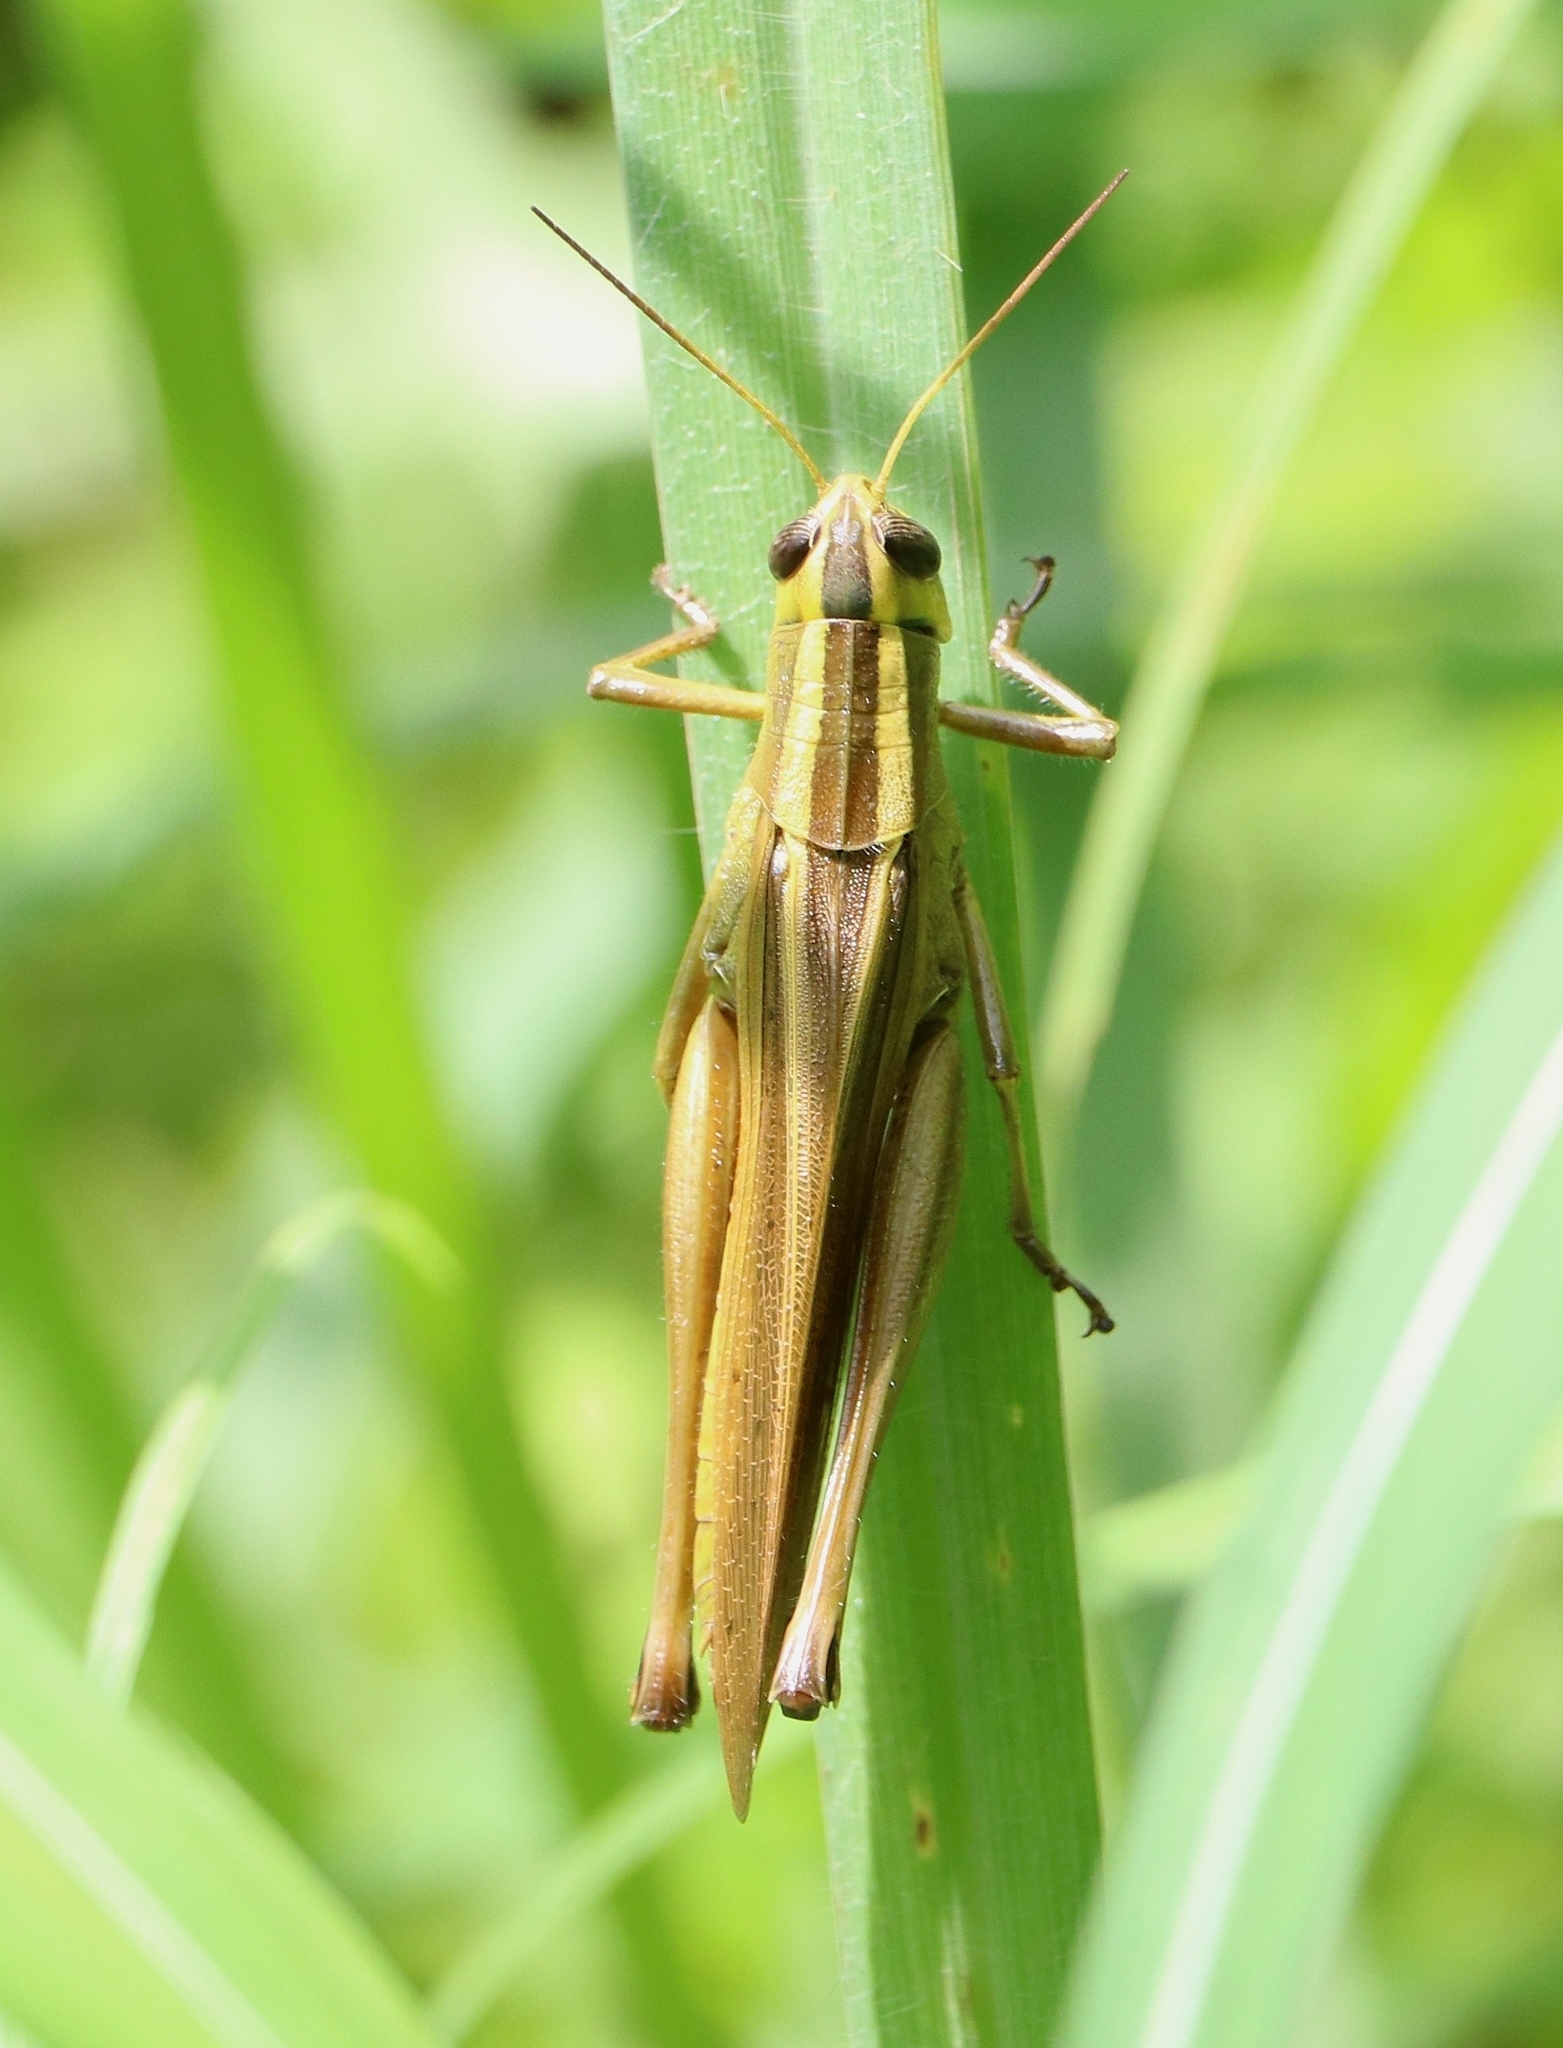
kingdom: Animalia
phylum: Arthropoda
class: Insecta
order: Orthoptera
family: Acrididae
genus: Choroedocus
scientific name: Choroedocus illustris
